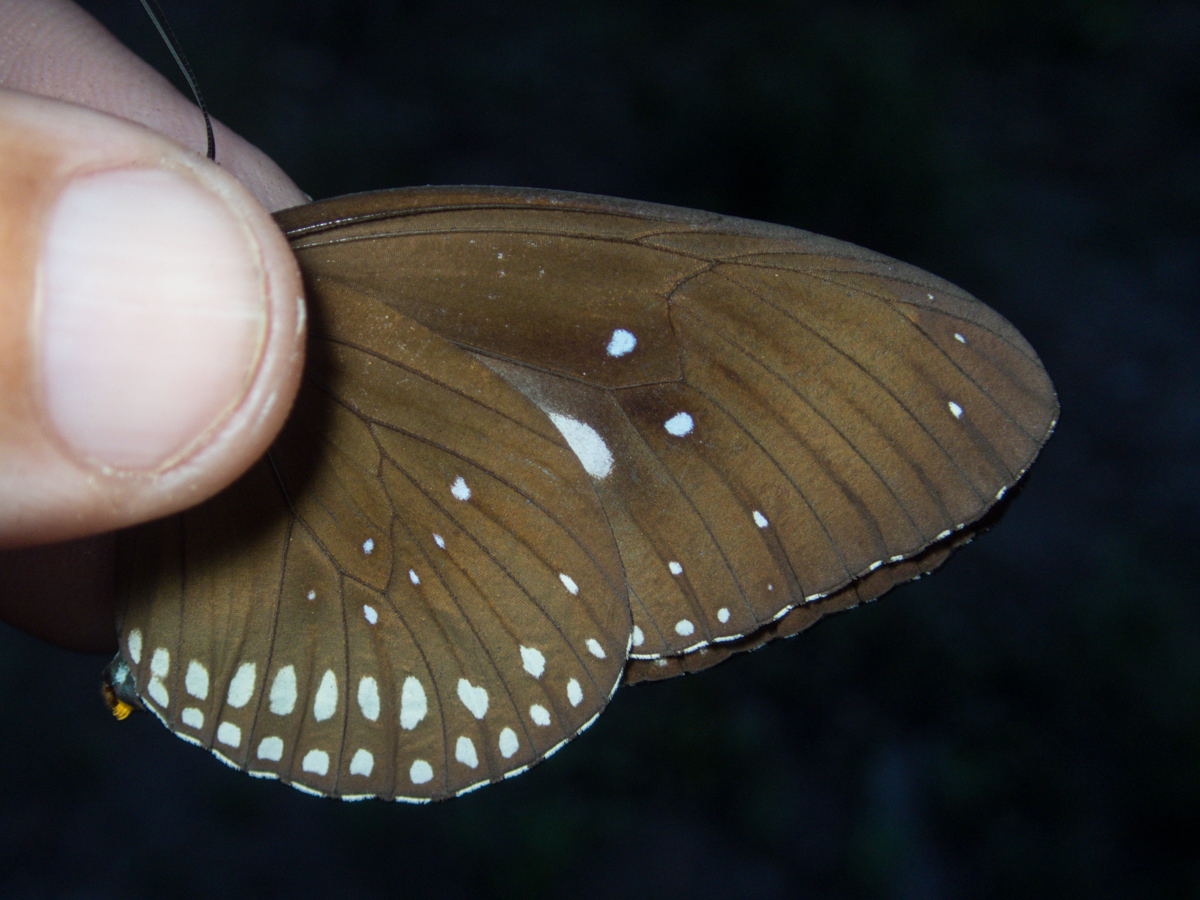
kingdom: Animalia
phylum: Arthropoda
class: Insecta
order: Lepidoptera
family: Nymphalidae
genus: Euploea
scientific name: Euploea core
